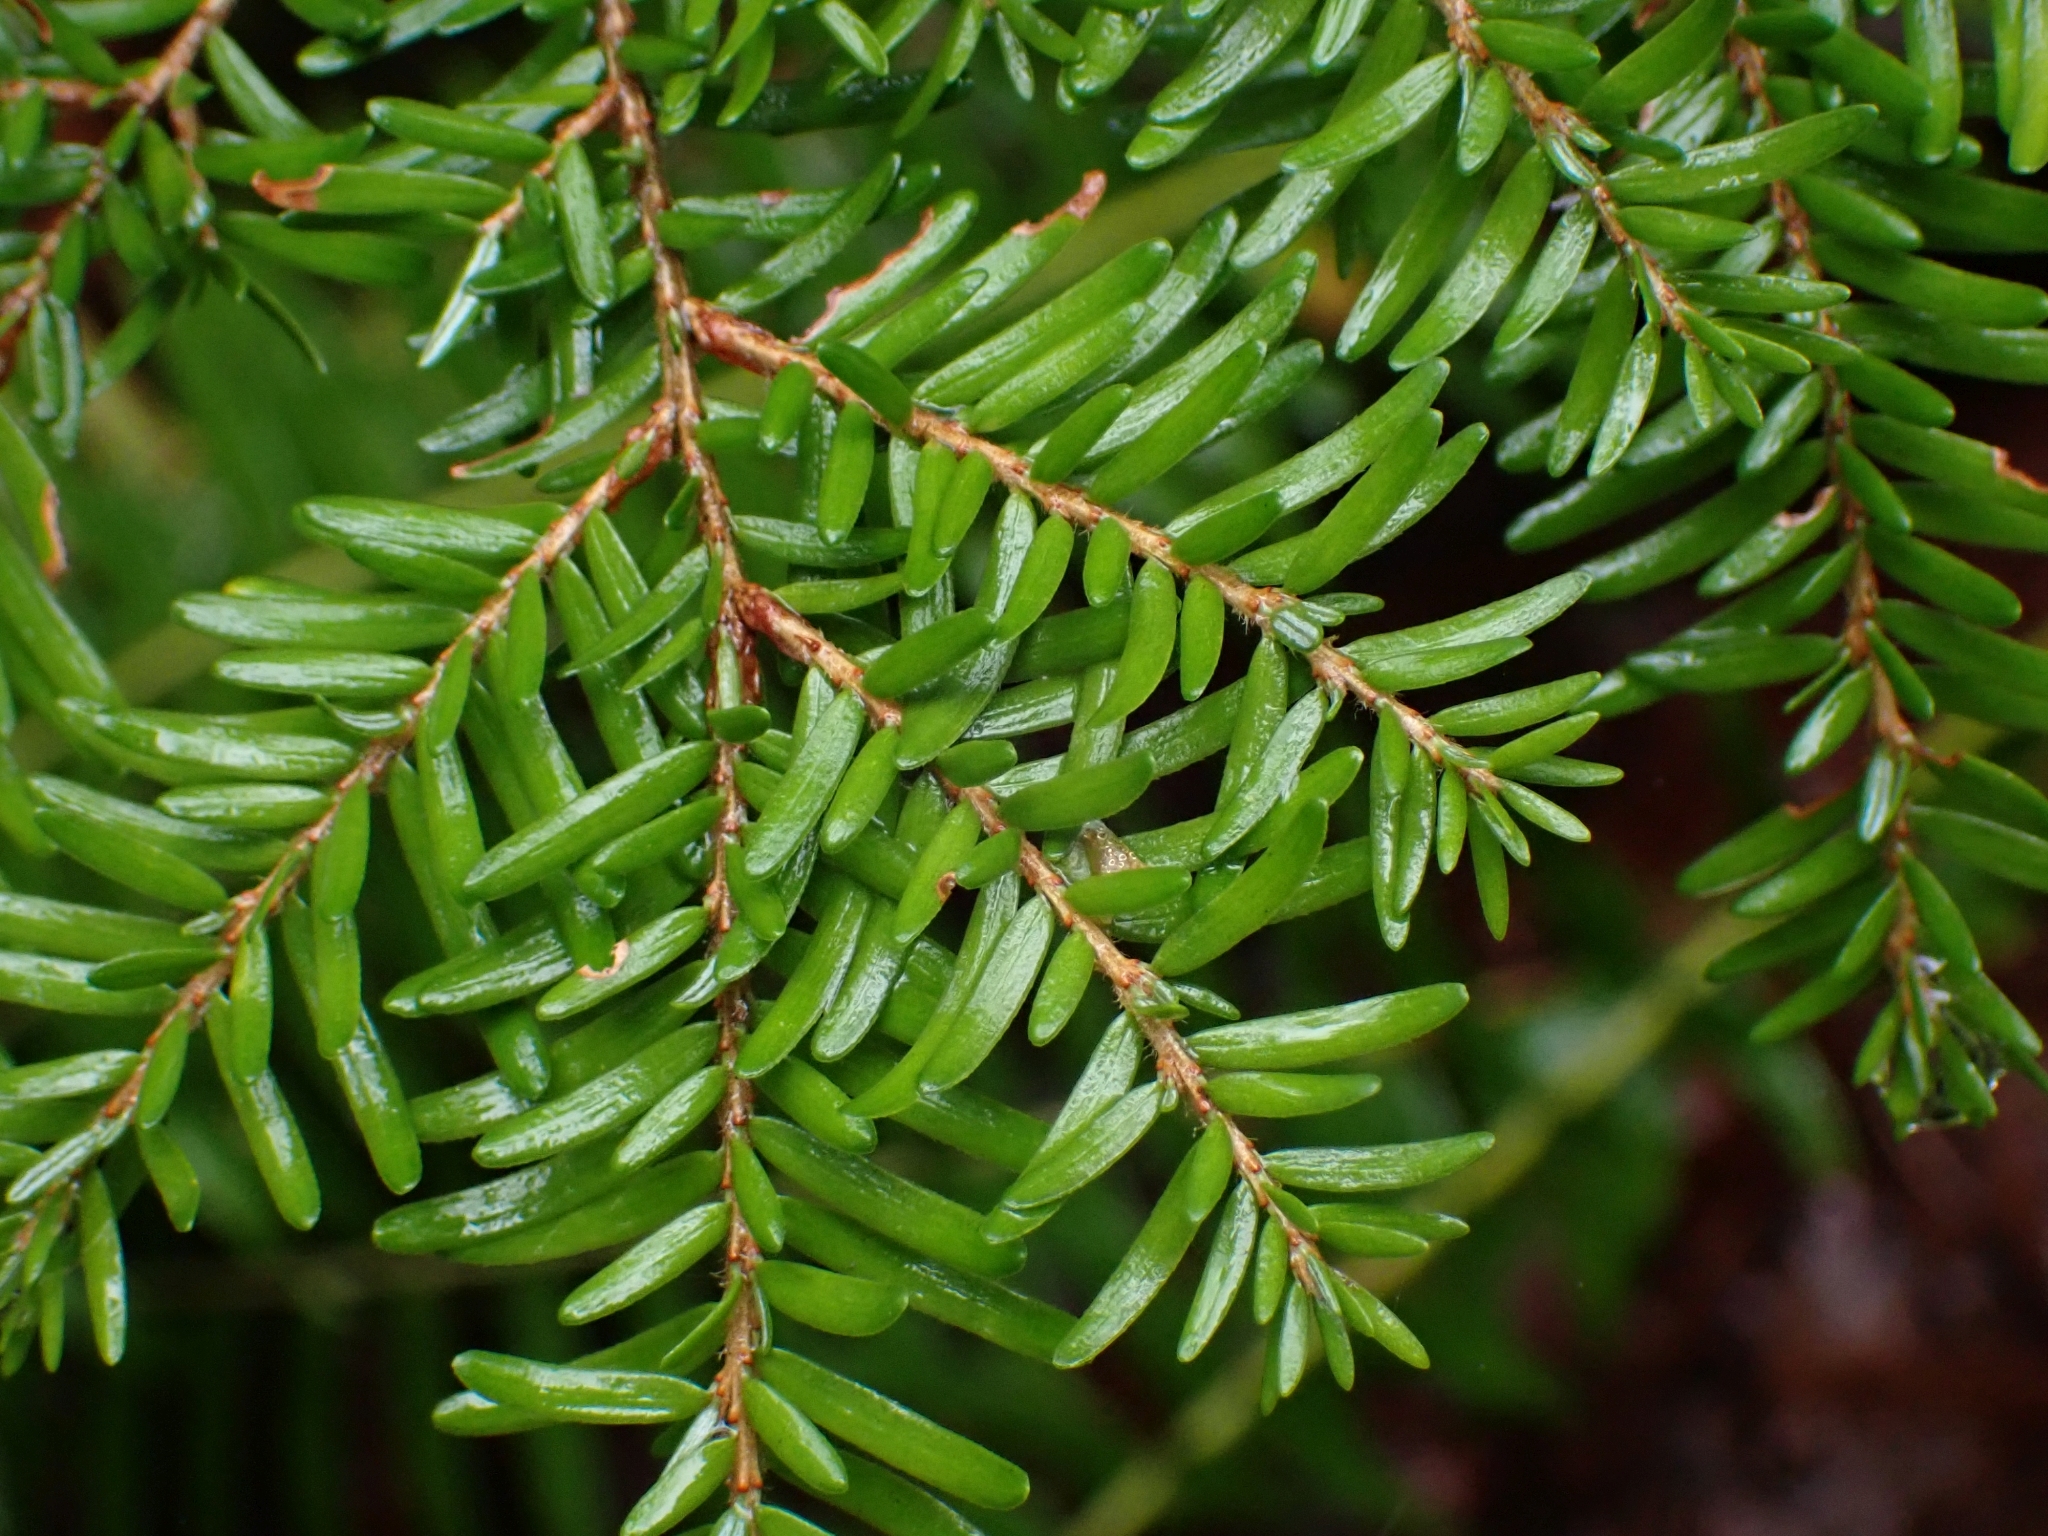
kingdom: Plantae
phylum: Tracheophyta
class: Pinopsida
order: Pinales
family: Pinaceae
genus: Tsuga
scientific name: Tsuga heterophylla
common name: Western hemlock
